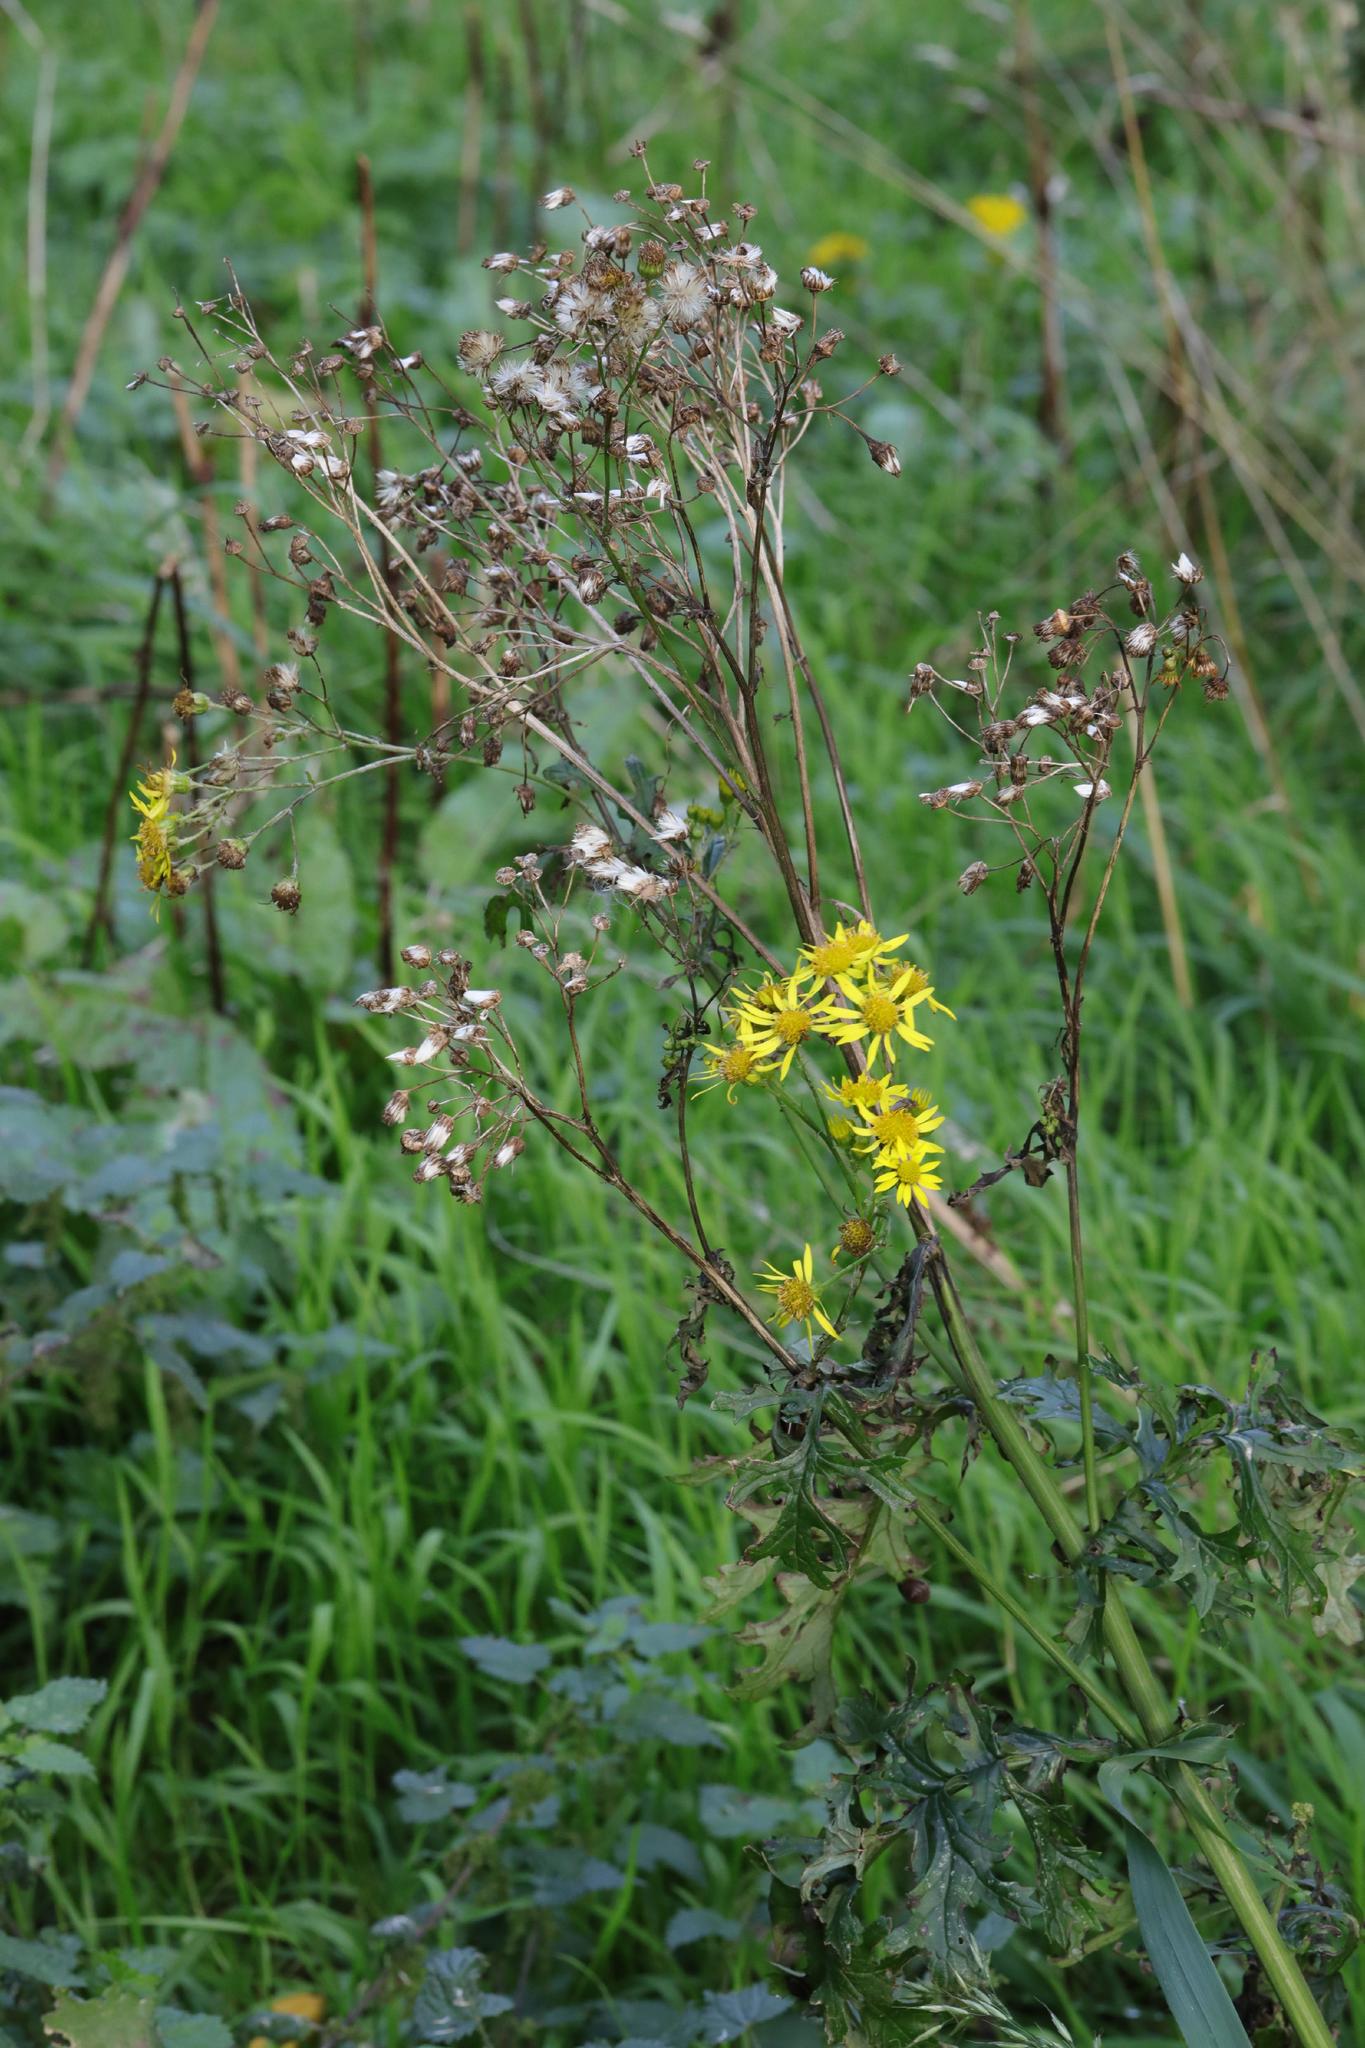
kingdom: Plantae
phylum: Tracheophyta
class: Magnoliopsida
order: Asterales
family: Asteraceae
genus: Jacobaea
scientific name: Jacobaea vulgaris
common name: Stinking willie
